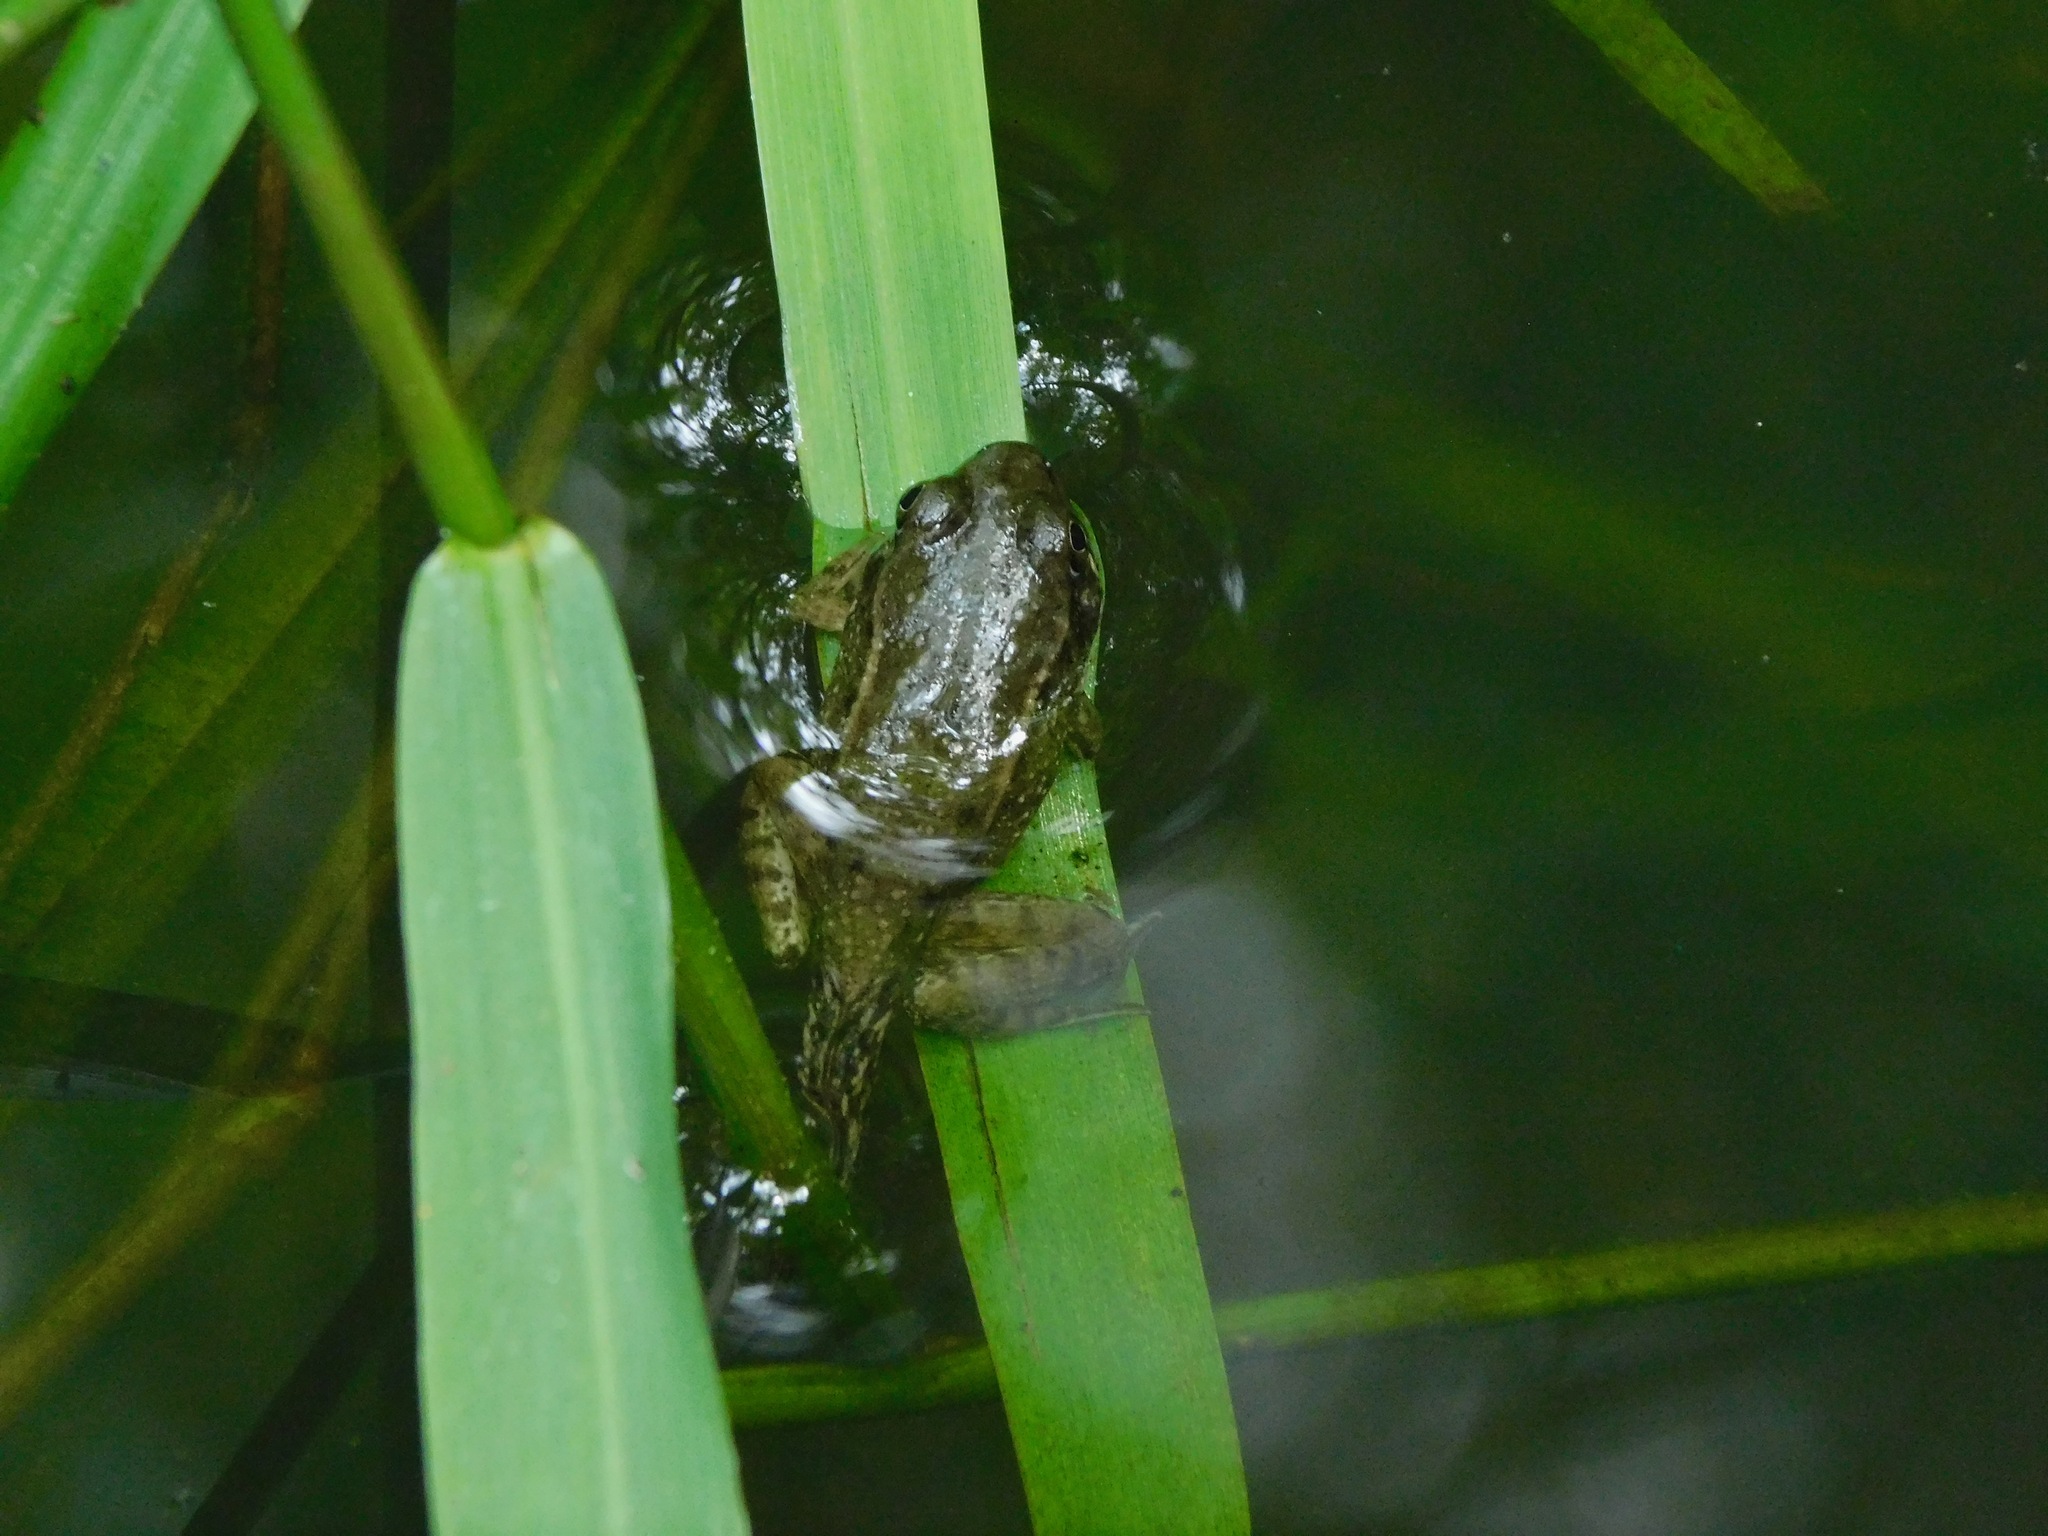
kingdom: Animalia
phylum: Chordata
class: Amphibia
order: Anura
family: Ranidae
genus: Lithobates
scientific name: Lithobates clamitans
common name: Green frog
